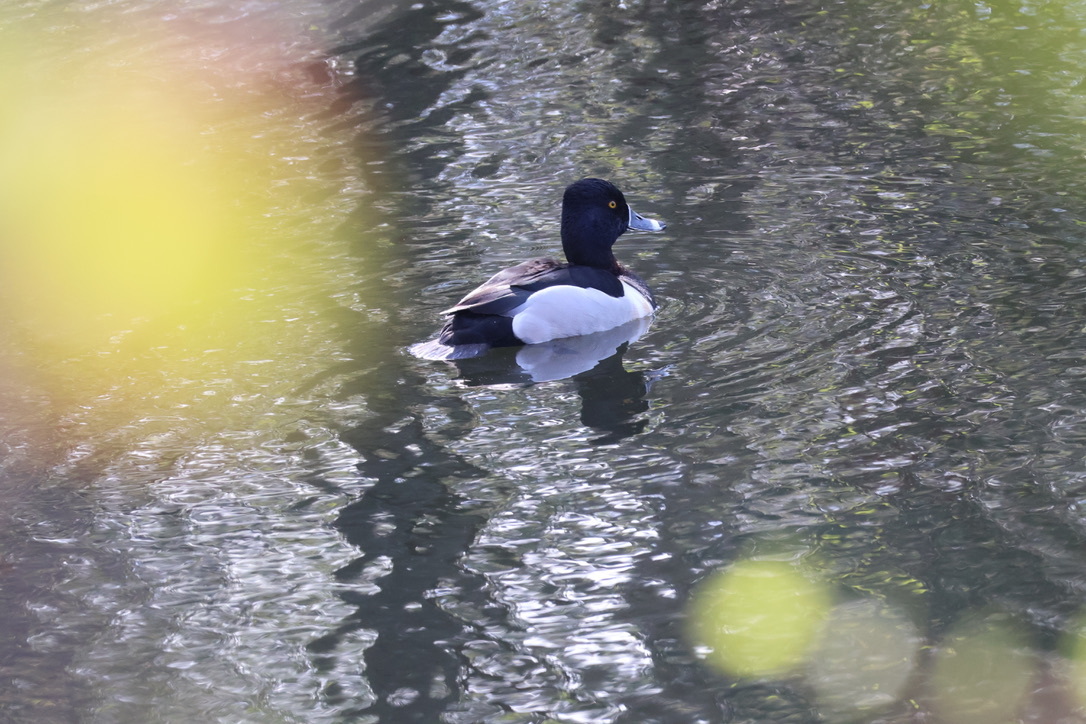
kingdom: Animalia
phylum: Chordata
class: Aves
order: Anseriformes
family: Anatidae
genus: Aythya
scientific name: Aythya collaris
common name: Ring-necked duck
